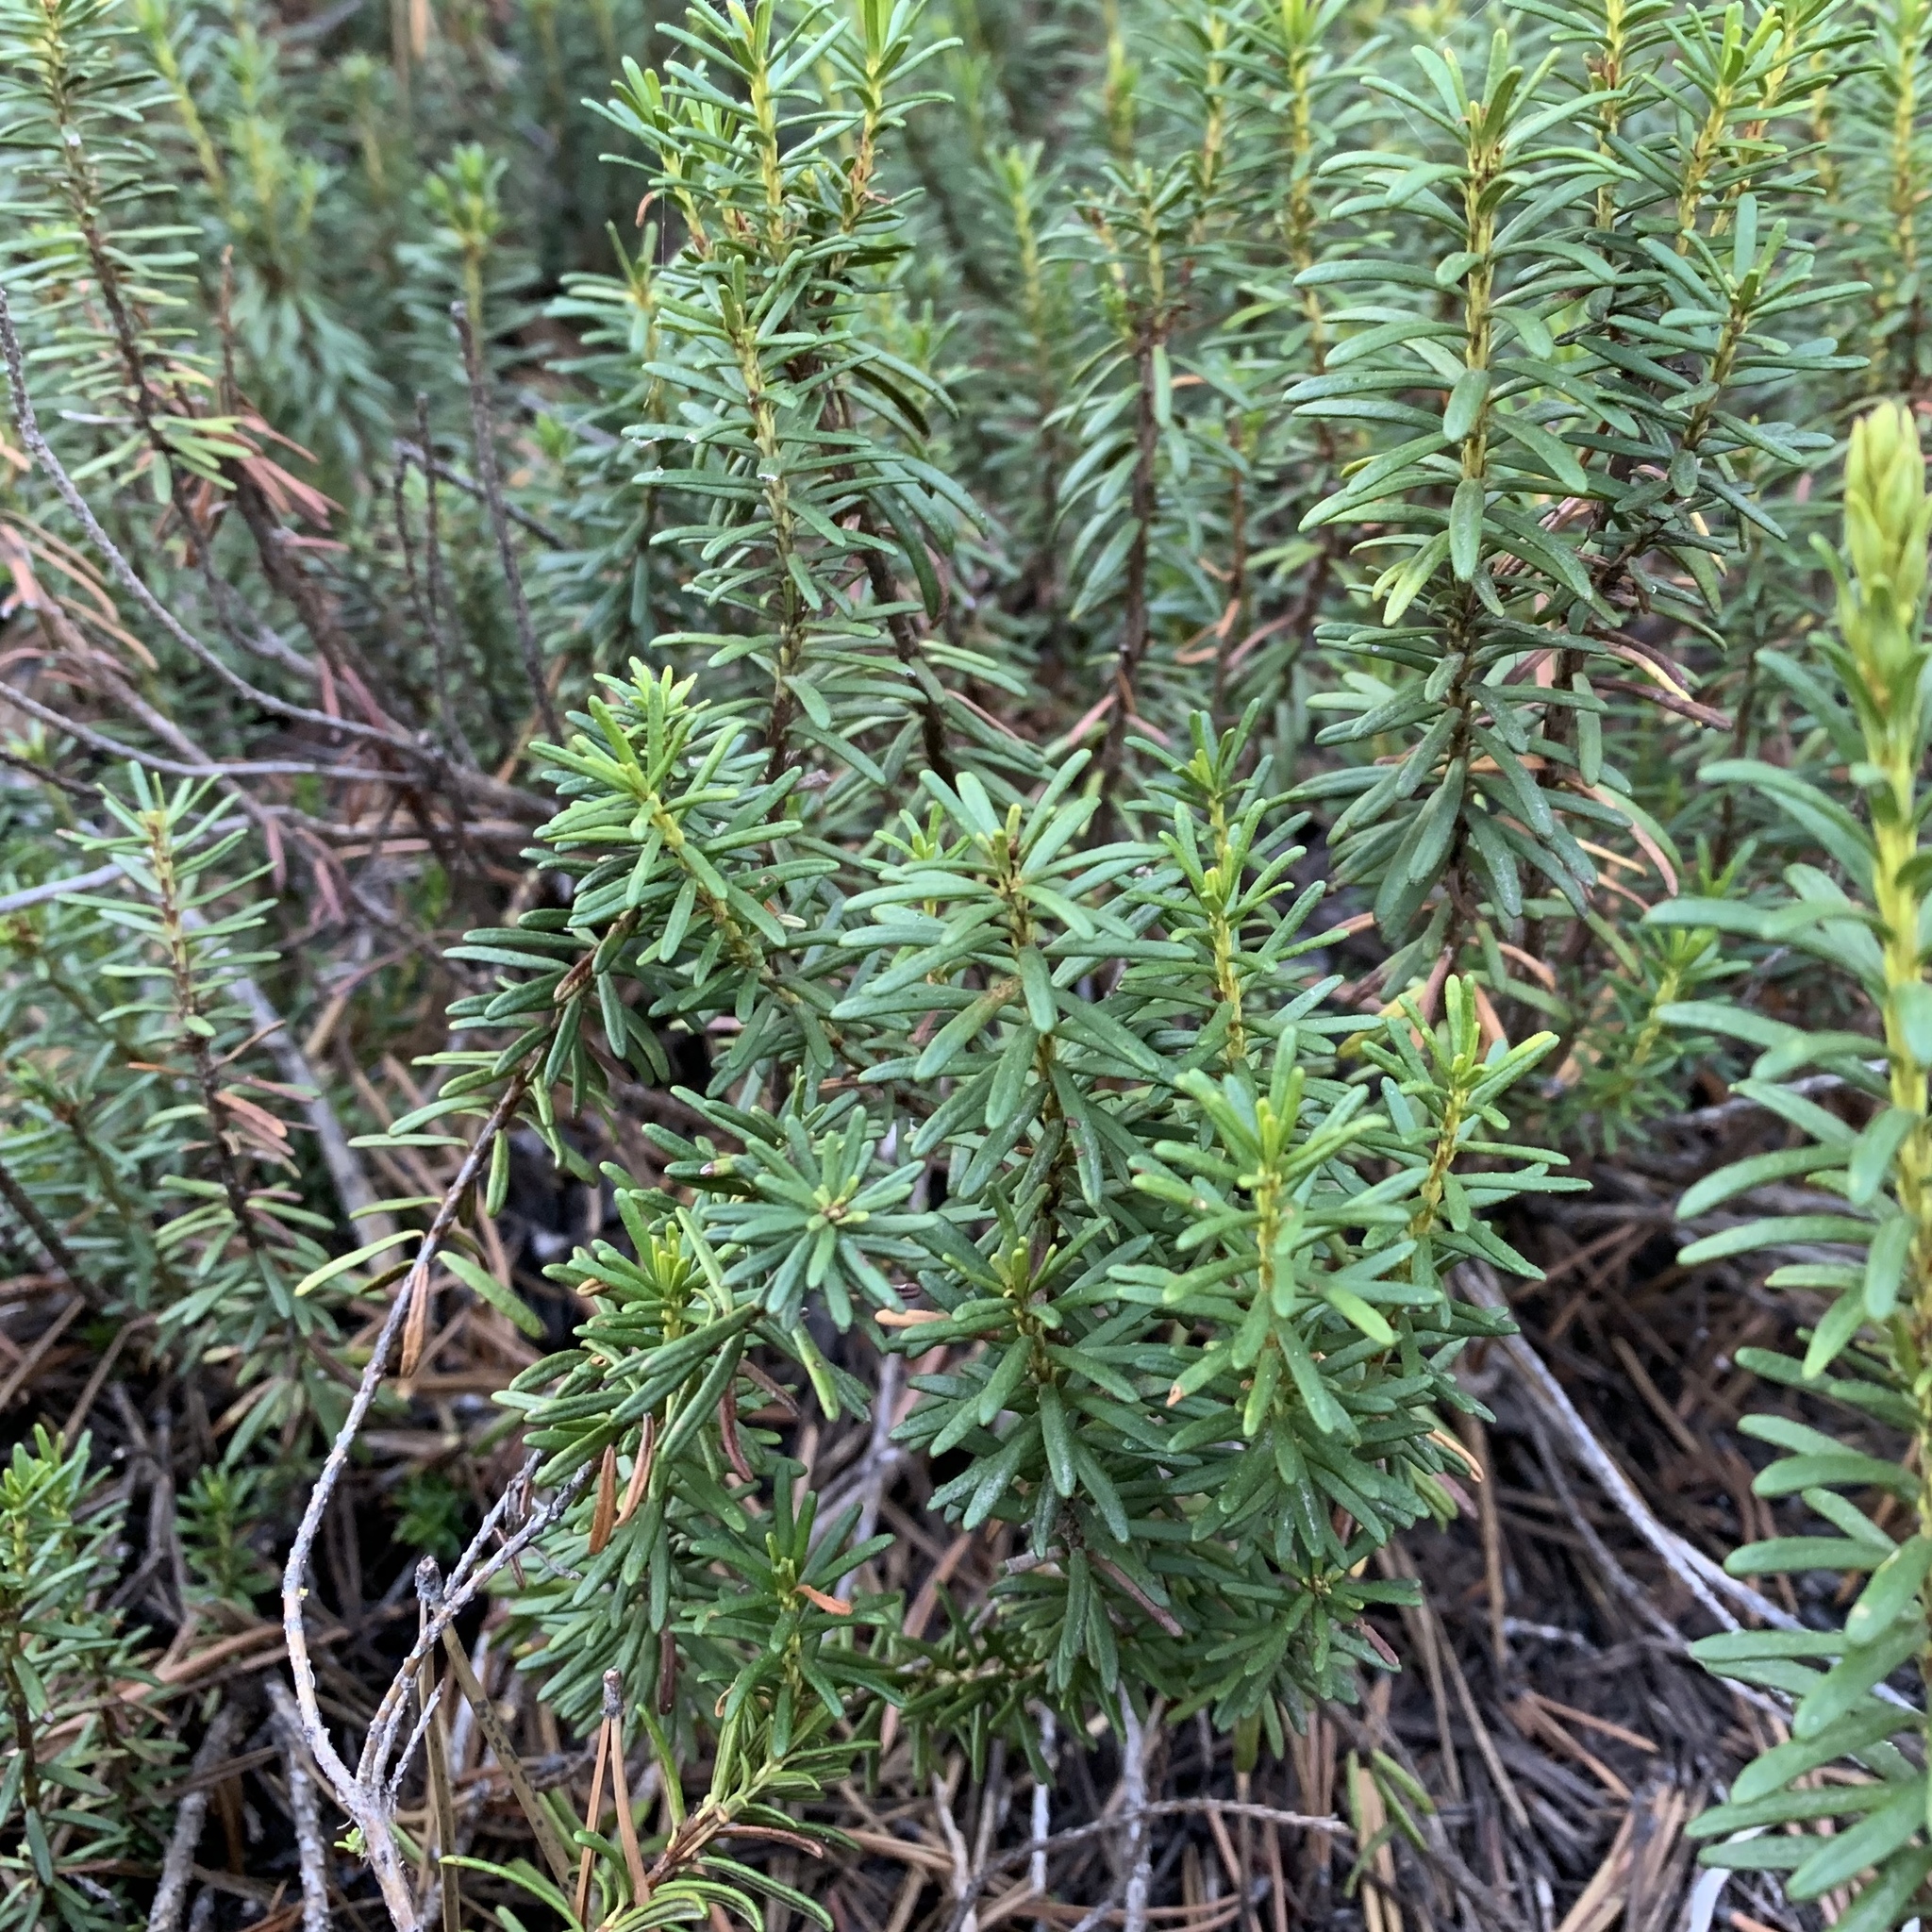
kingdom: Plantae
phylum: Tracheophyta
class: Magnoliopsida
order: Ericales
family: Ericaceae
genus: Phyllodoce
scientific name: Phyllodoce breweri
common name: Brewer's mountain-heather
